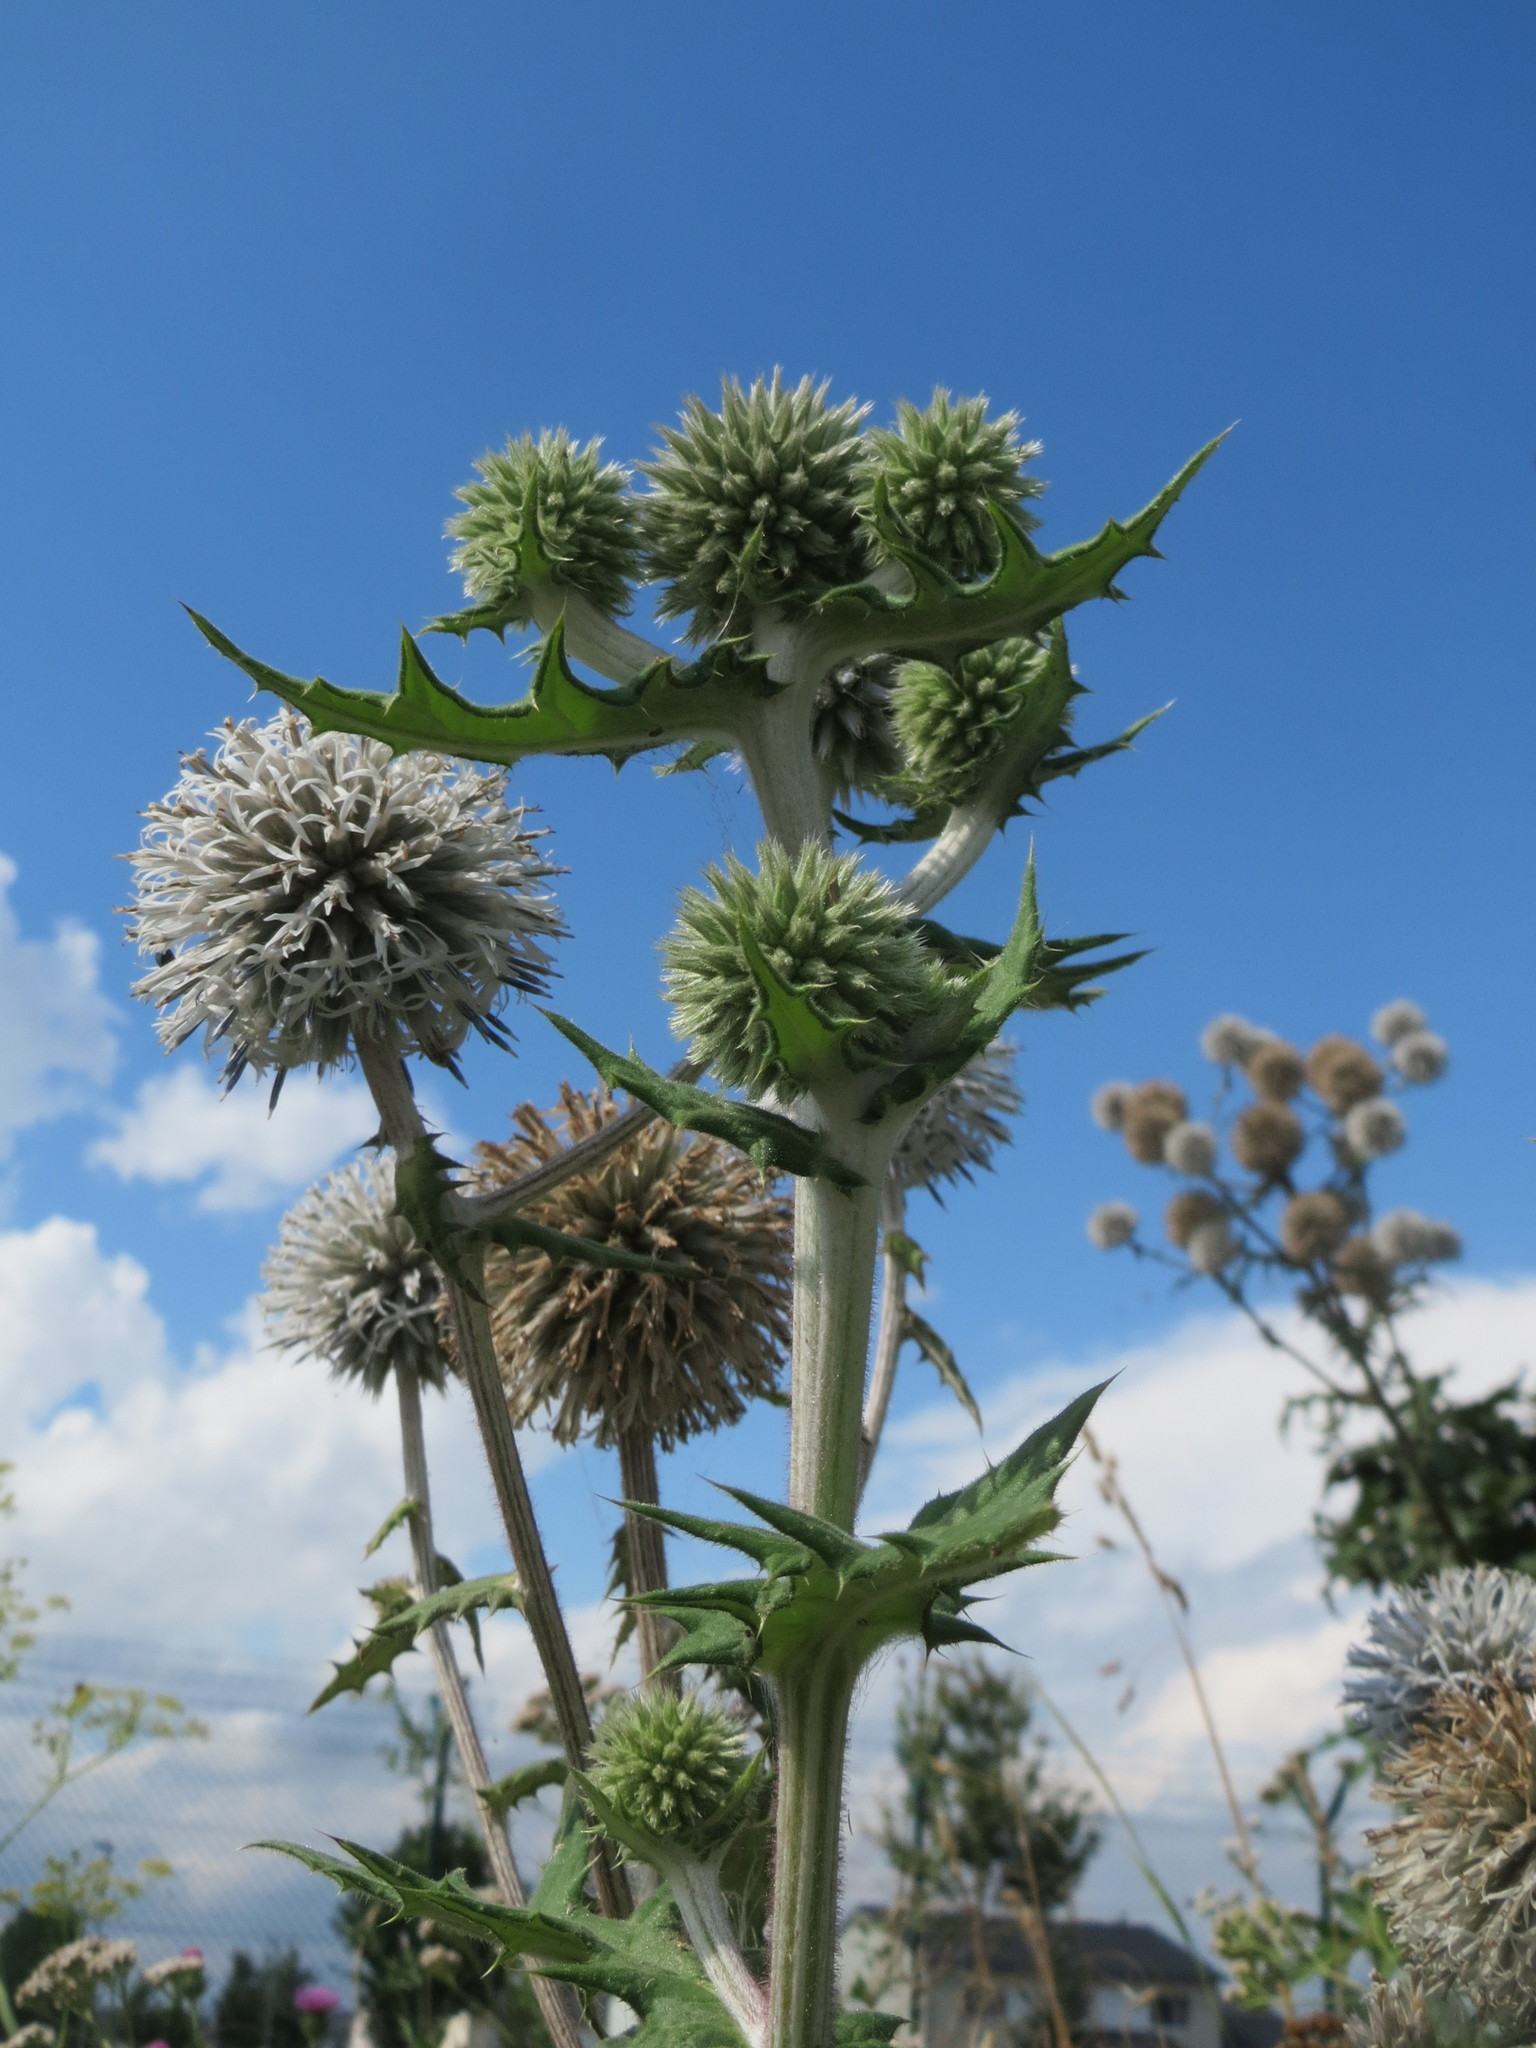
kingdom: Plantae
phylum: Tracheophyta
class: Magnoliopsida
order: Asterales
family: Asteraceae
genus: Echinops
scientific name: Echinops sphaerocephalus
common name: Glandular globe-thistle
